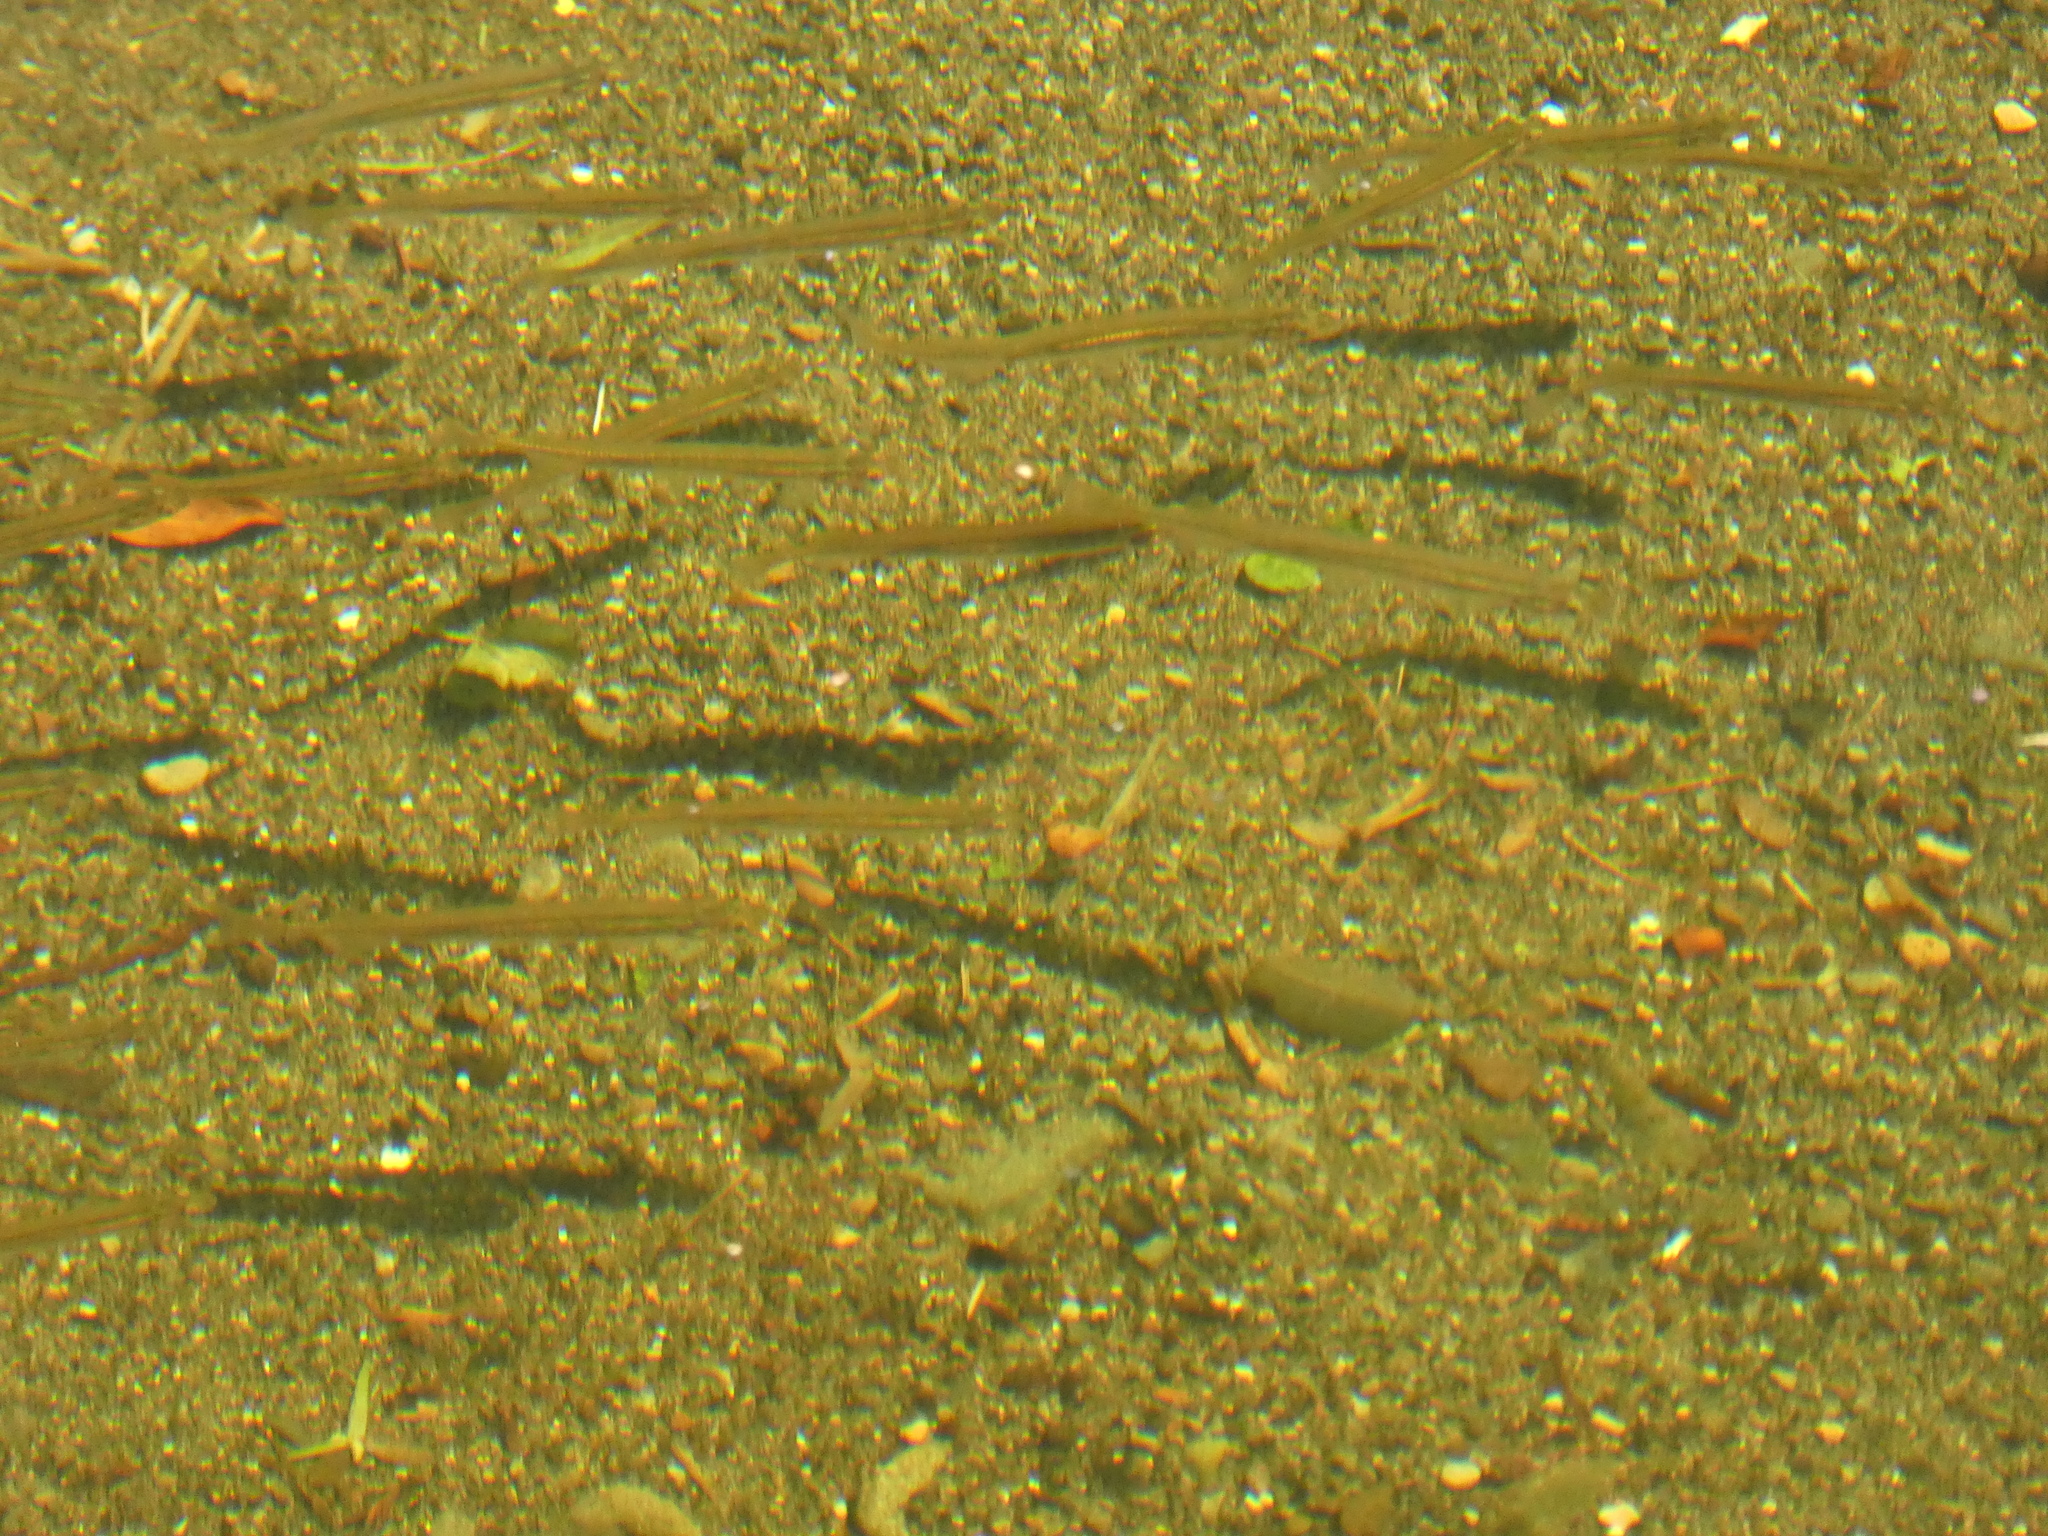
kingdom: Animalia
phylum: Chordata
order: Osmeriformes
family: Galaxiidae
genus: Galaxias
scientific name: Galaxias maculatus
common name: Common galaxias
